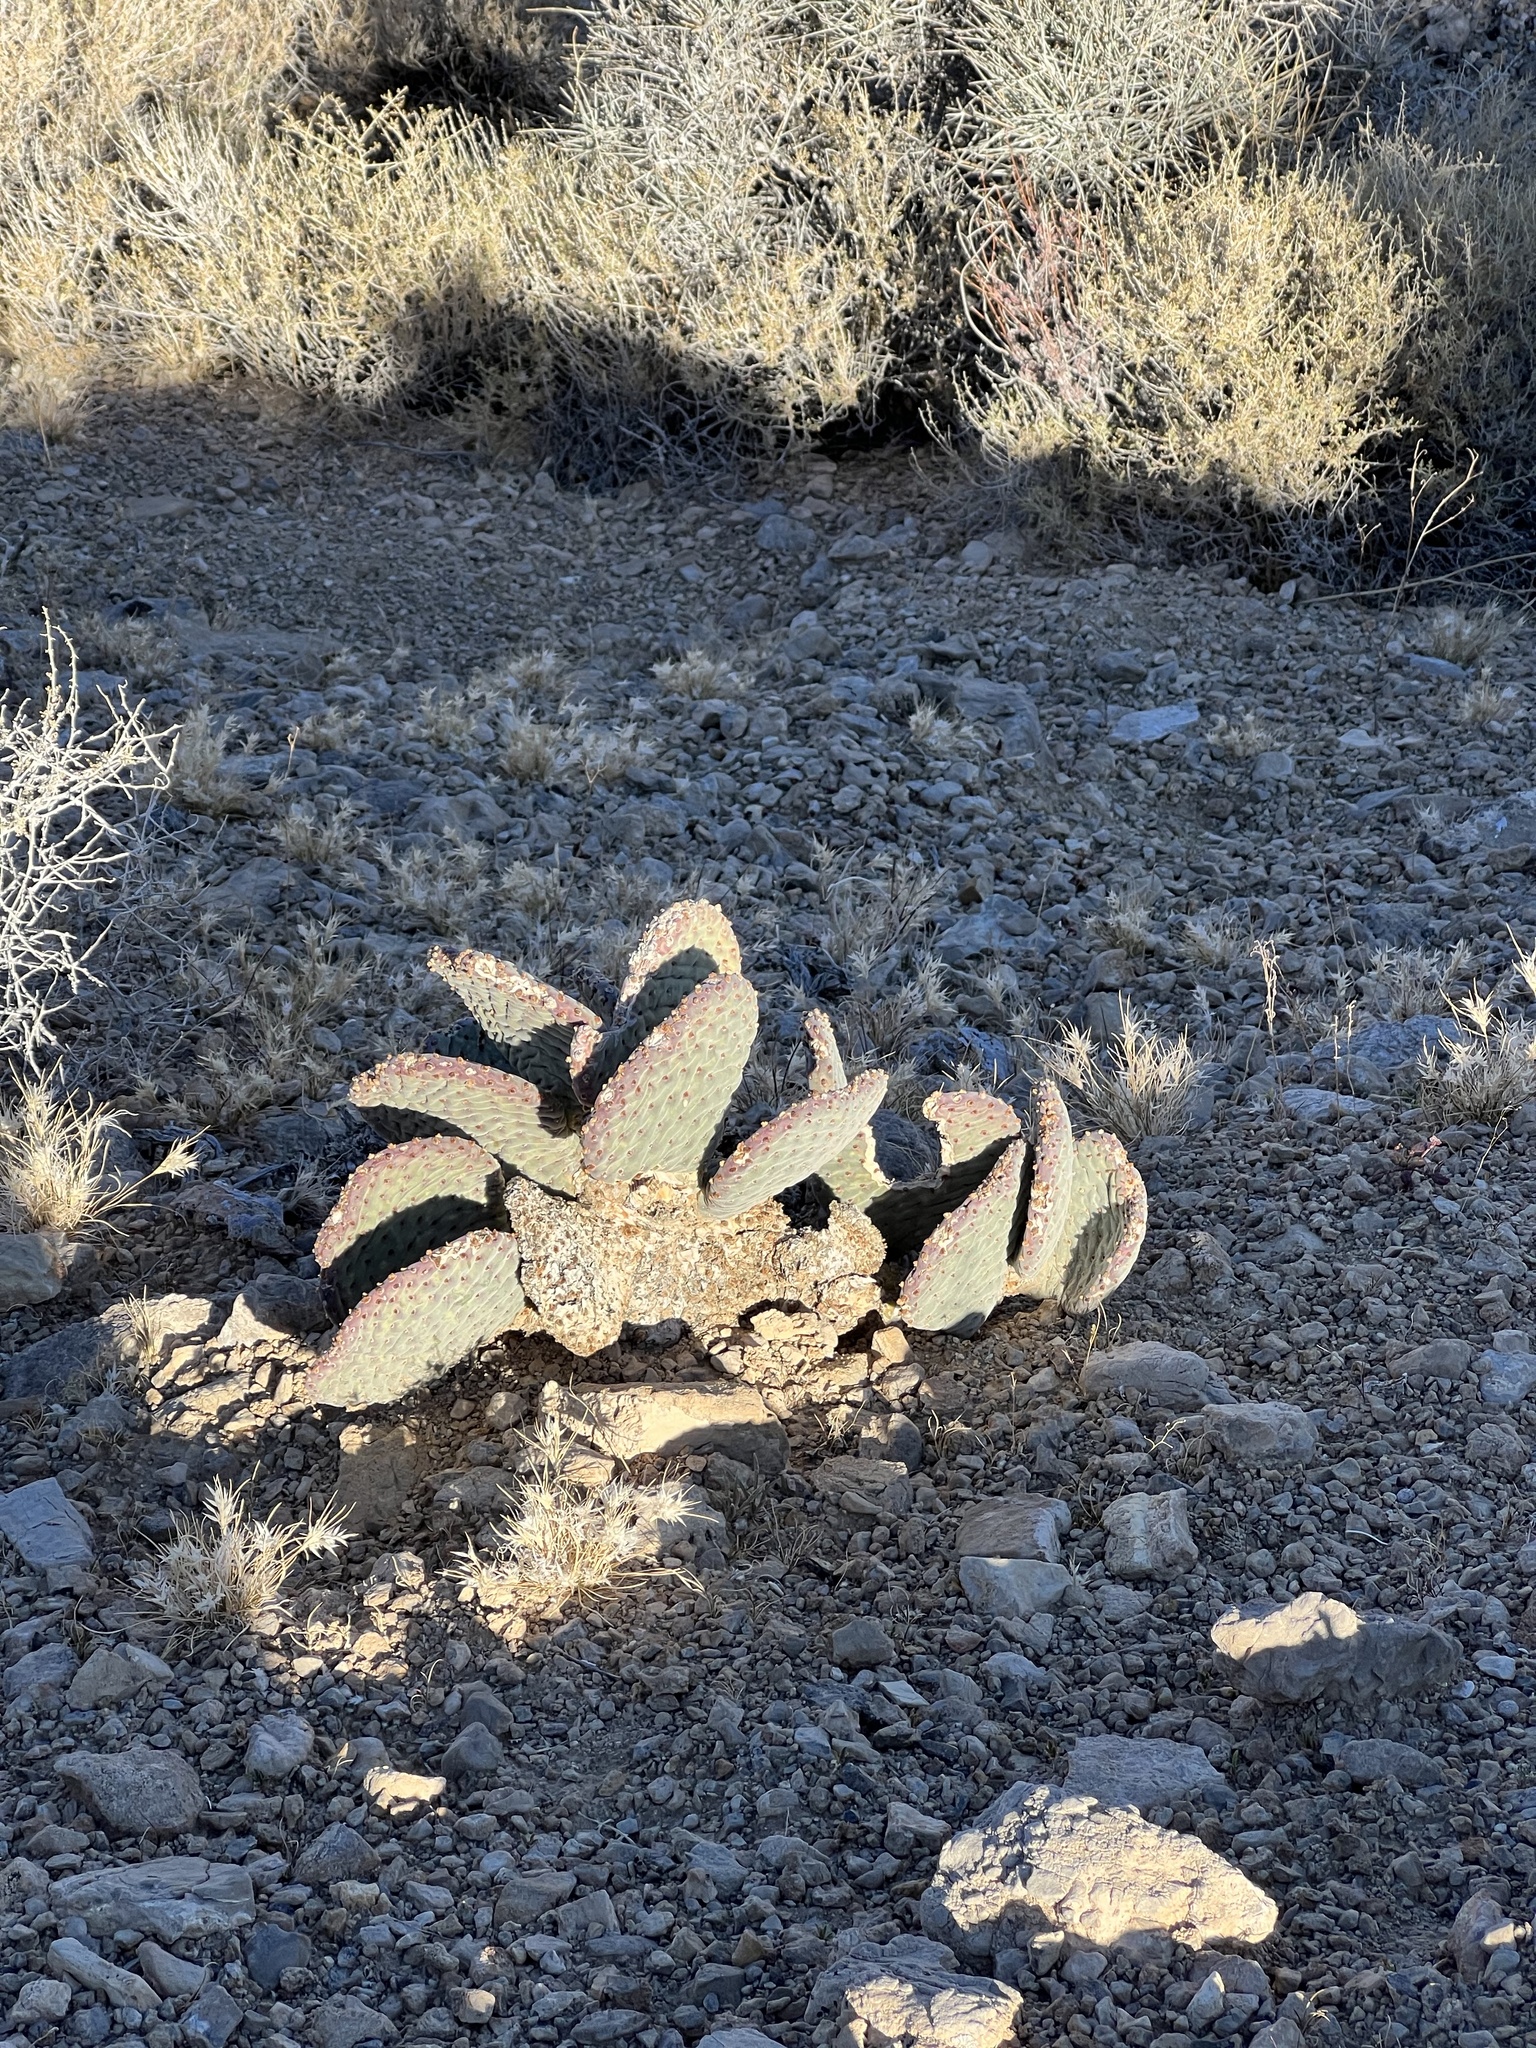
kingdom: Plantae
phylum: Tracheophyta
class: Magnoliopsida
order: Caryophyllales
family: Cactaceae
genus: Opuntia
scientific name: Opuntia basilaris
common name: Beavertail prickly-pear
